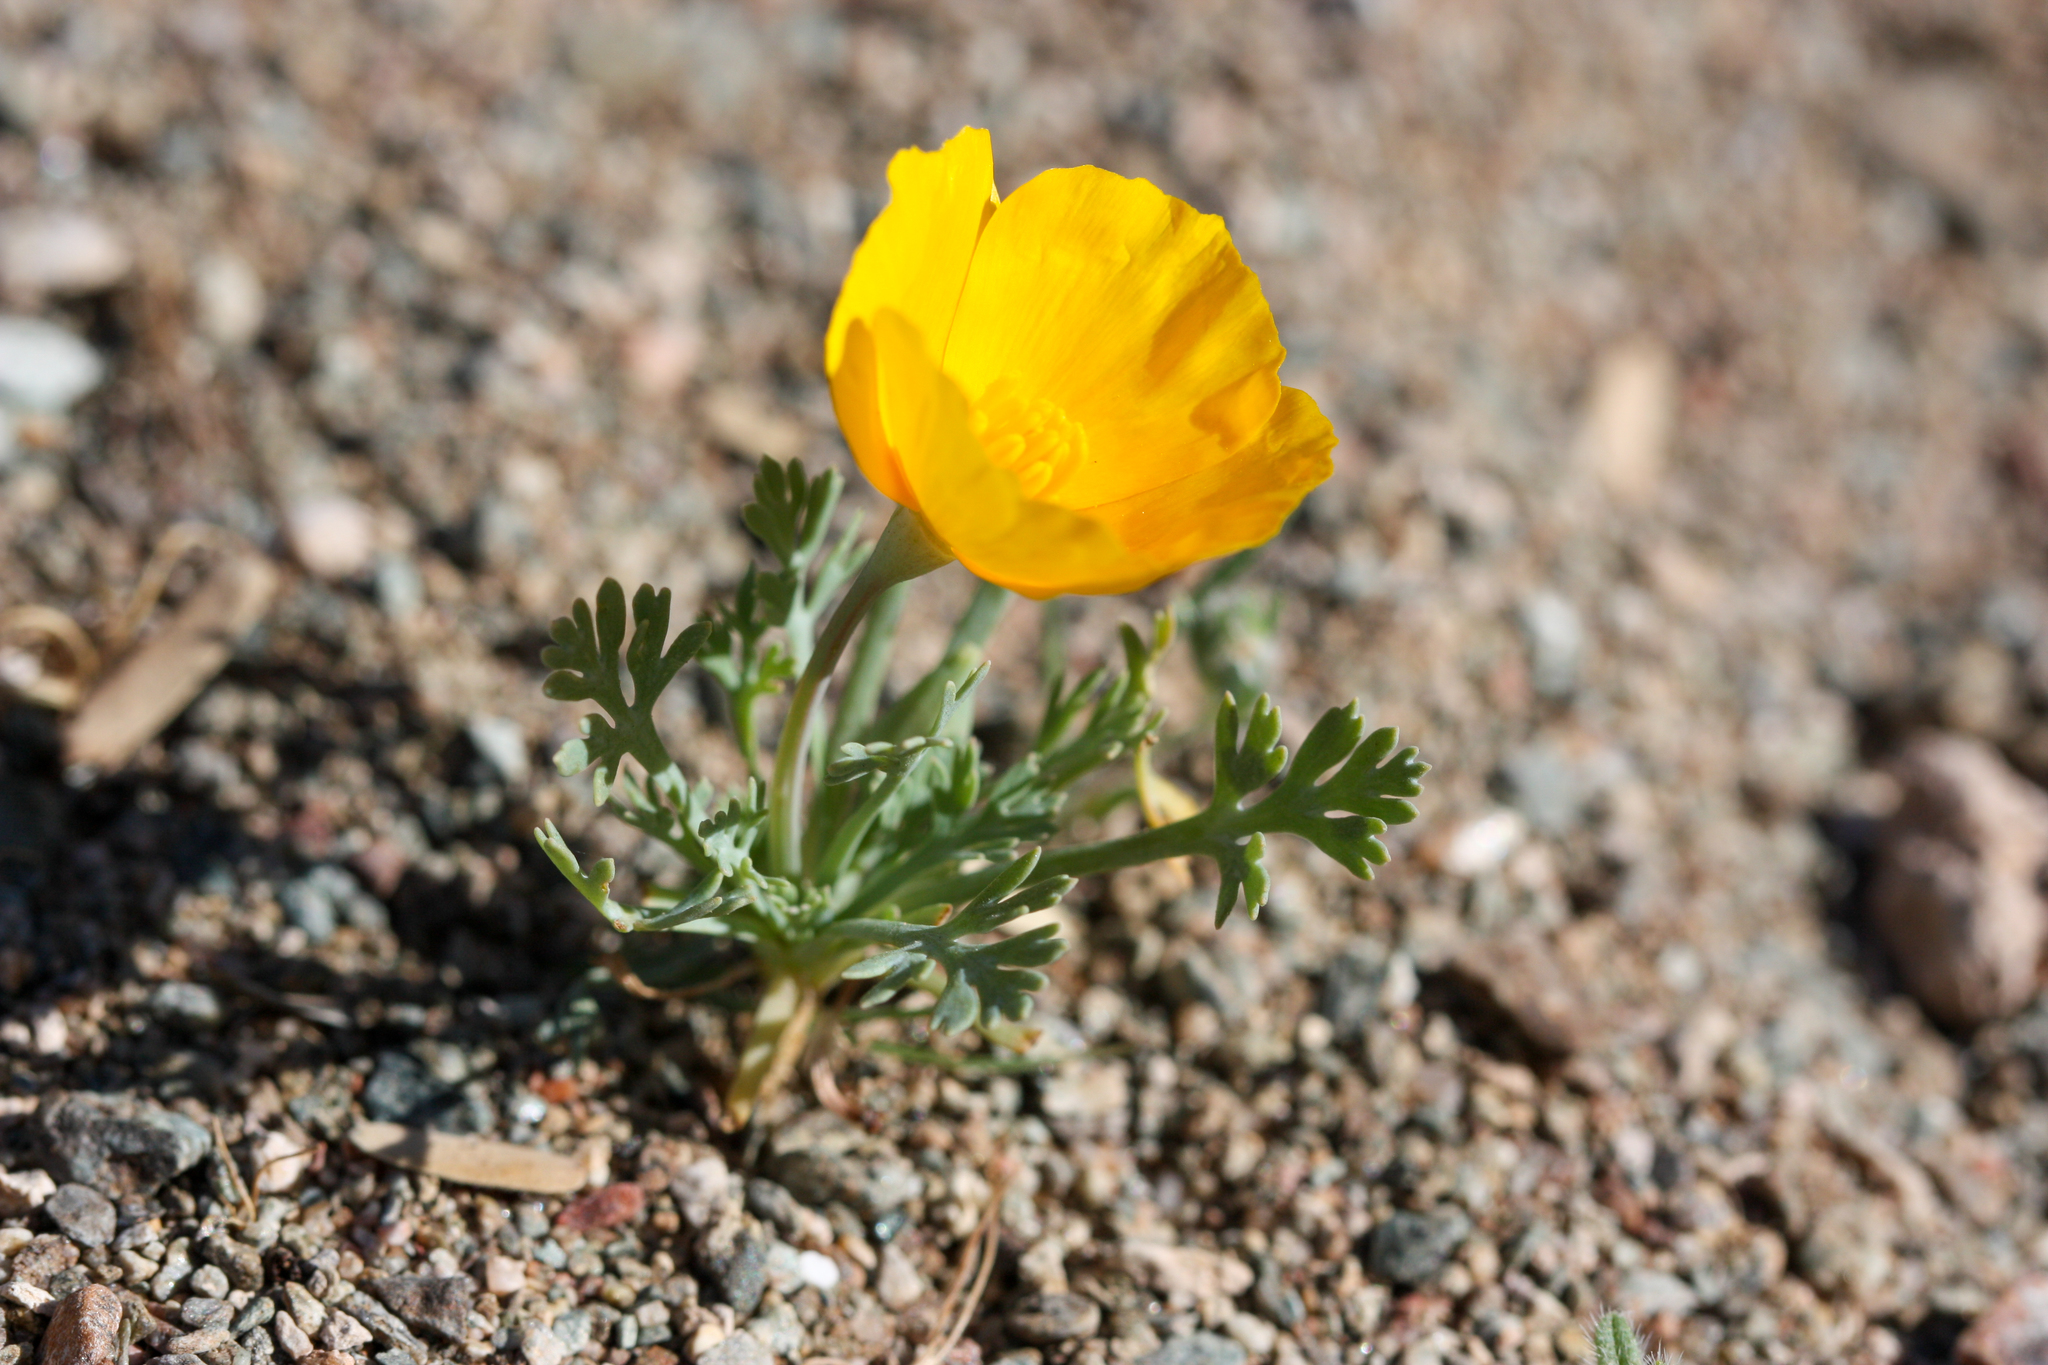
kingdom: Plantae
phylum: Tracheophyta
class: Magnoliopsida
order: Ranunculales
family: Papaveraceae
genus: Eschscholzia
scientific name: Eschscholzia californica
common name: California poppy
